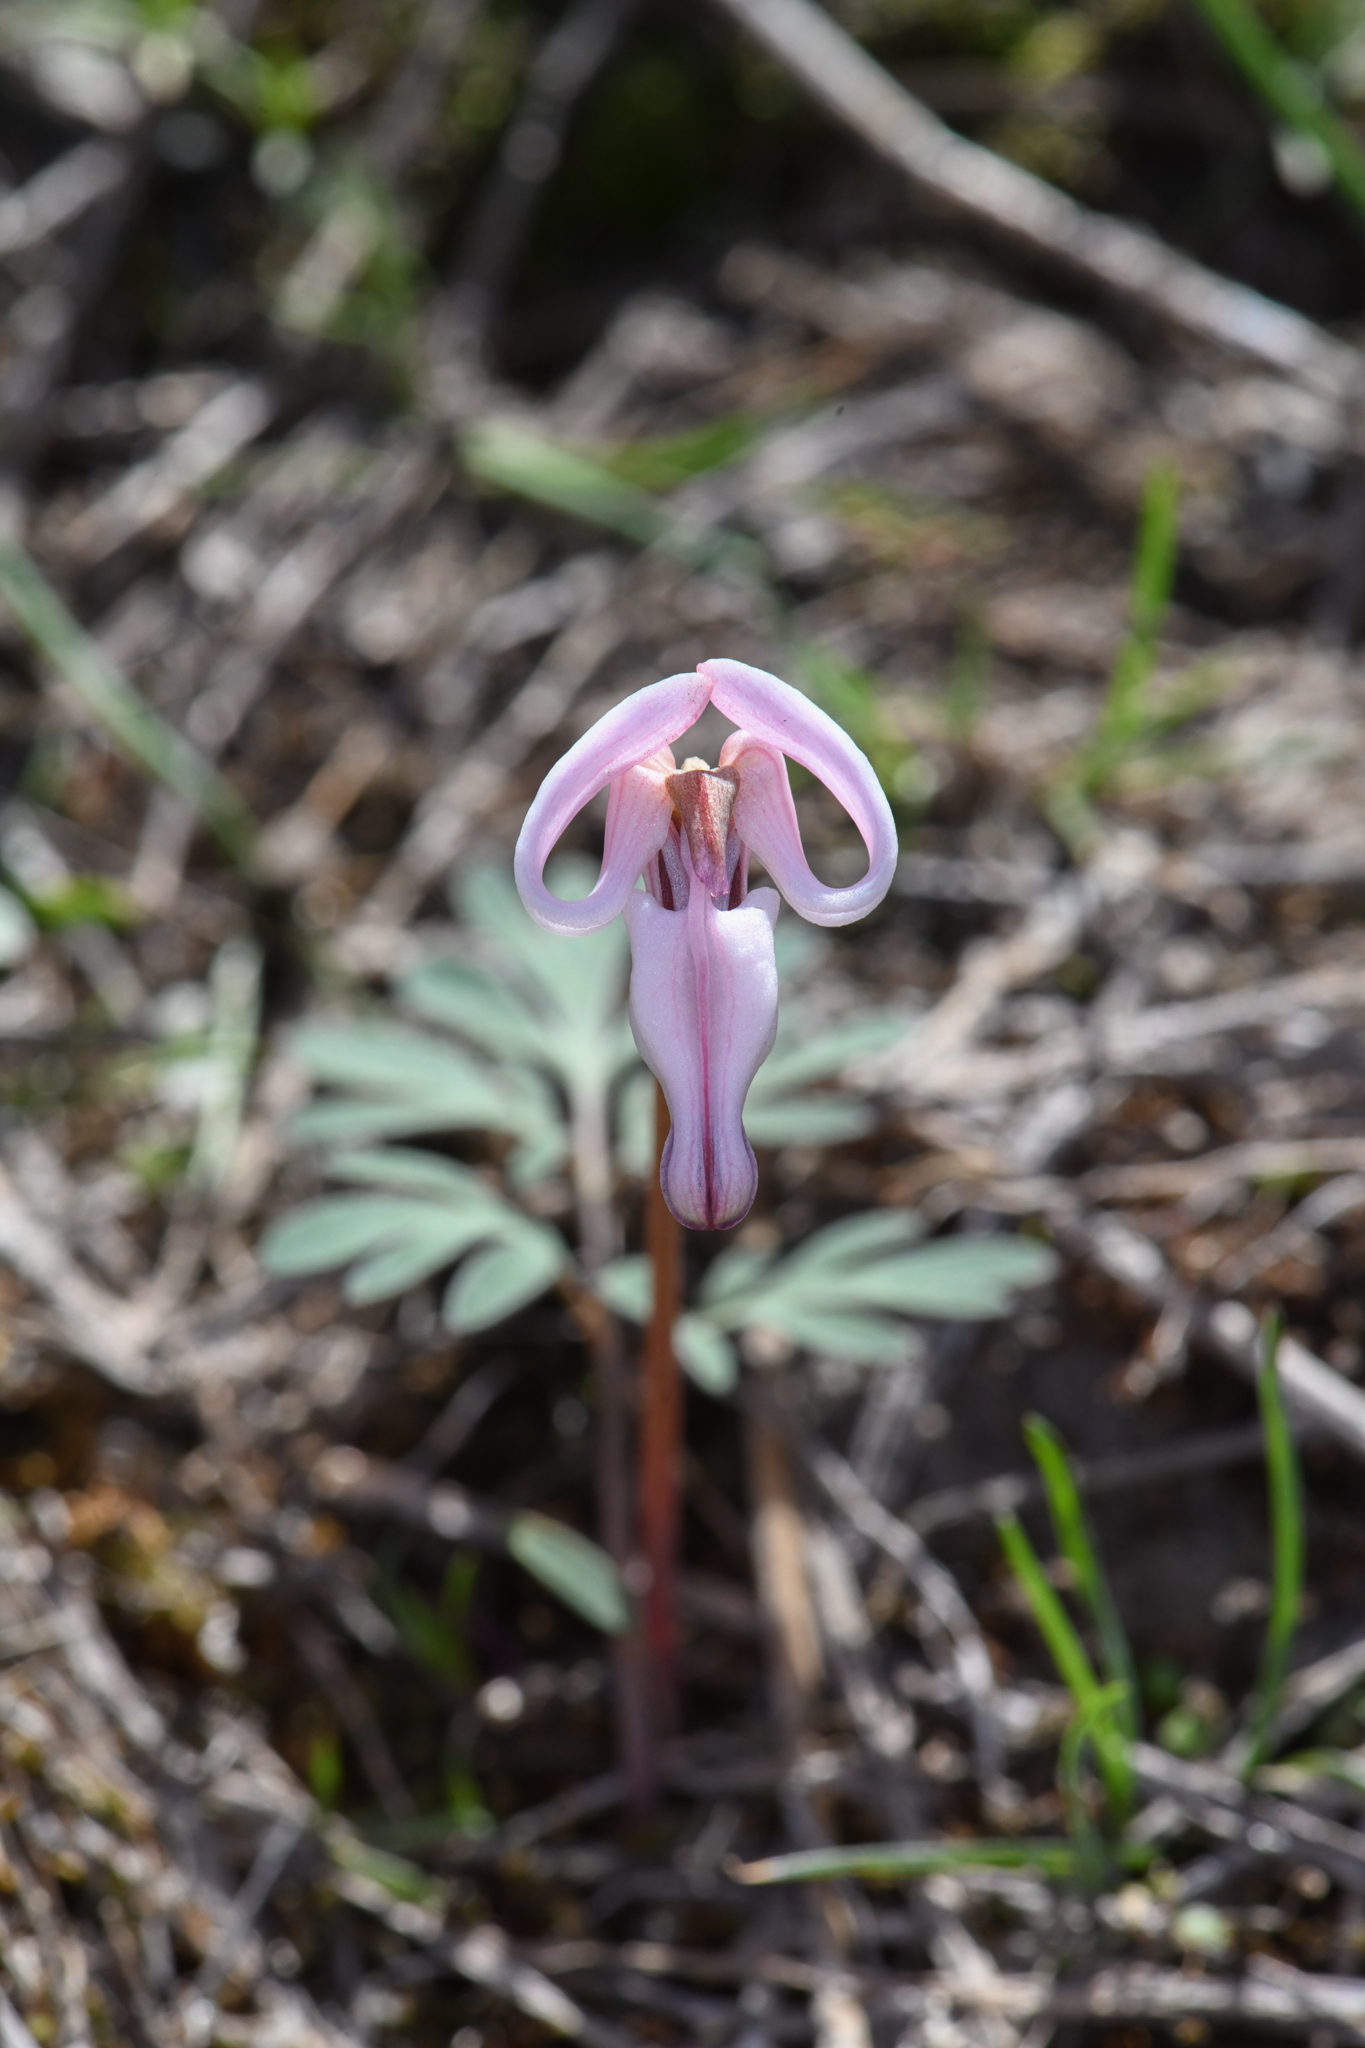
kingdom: Plantae
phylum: Tracheophyta
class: Magnoliopsida
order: Ranunculales
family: Papaveraceae
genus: Dicentra
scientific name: Dicentra uniflora
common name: Steer's-head
